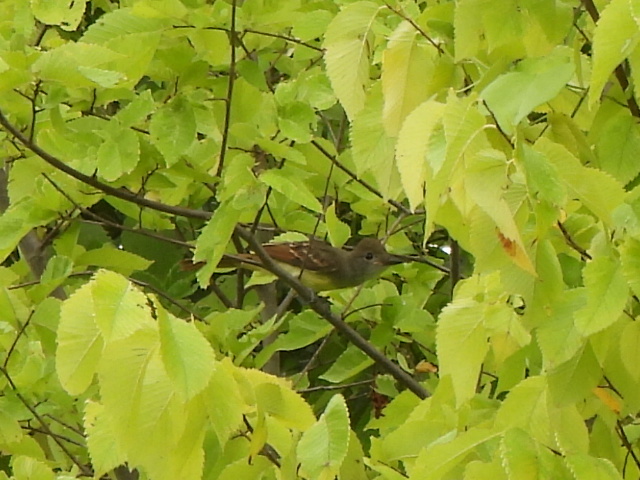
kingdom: Animalia
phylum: Chordata
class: Aves
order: Passeriformes
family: Tyrannidae
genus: Myiarchus
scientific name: Myiarchus crinitus
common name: Great crested flycatcher
